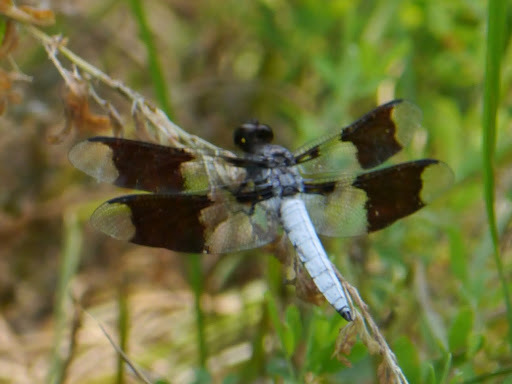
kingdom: Animalia
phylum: Arthropoda
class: Insecta
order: Odonata
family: Libellulidae
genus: Plathemis
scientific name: Plathemis lydia
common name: Common whitetail
